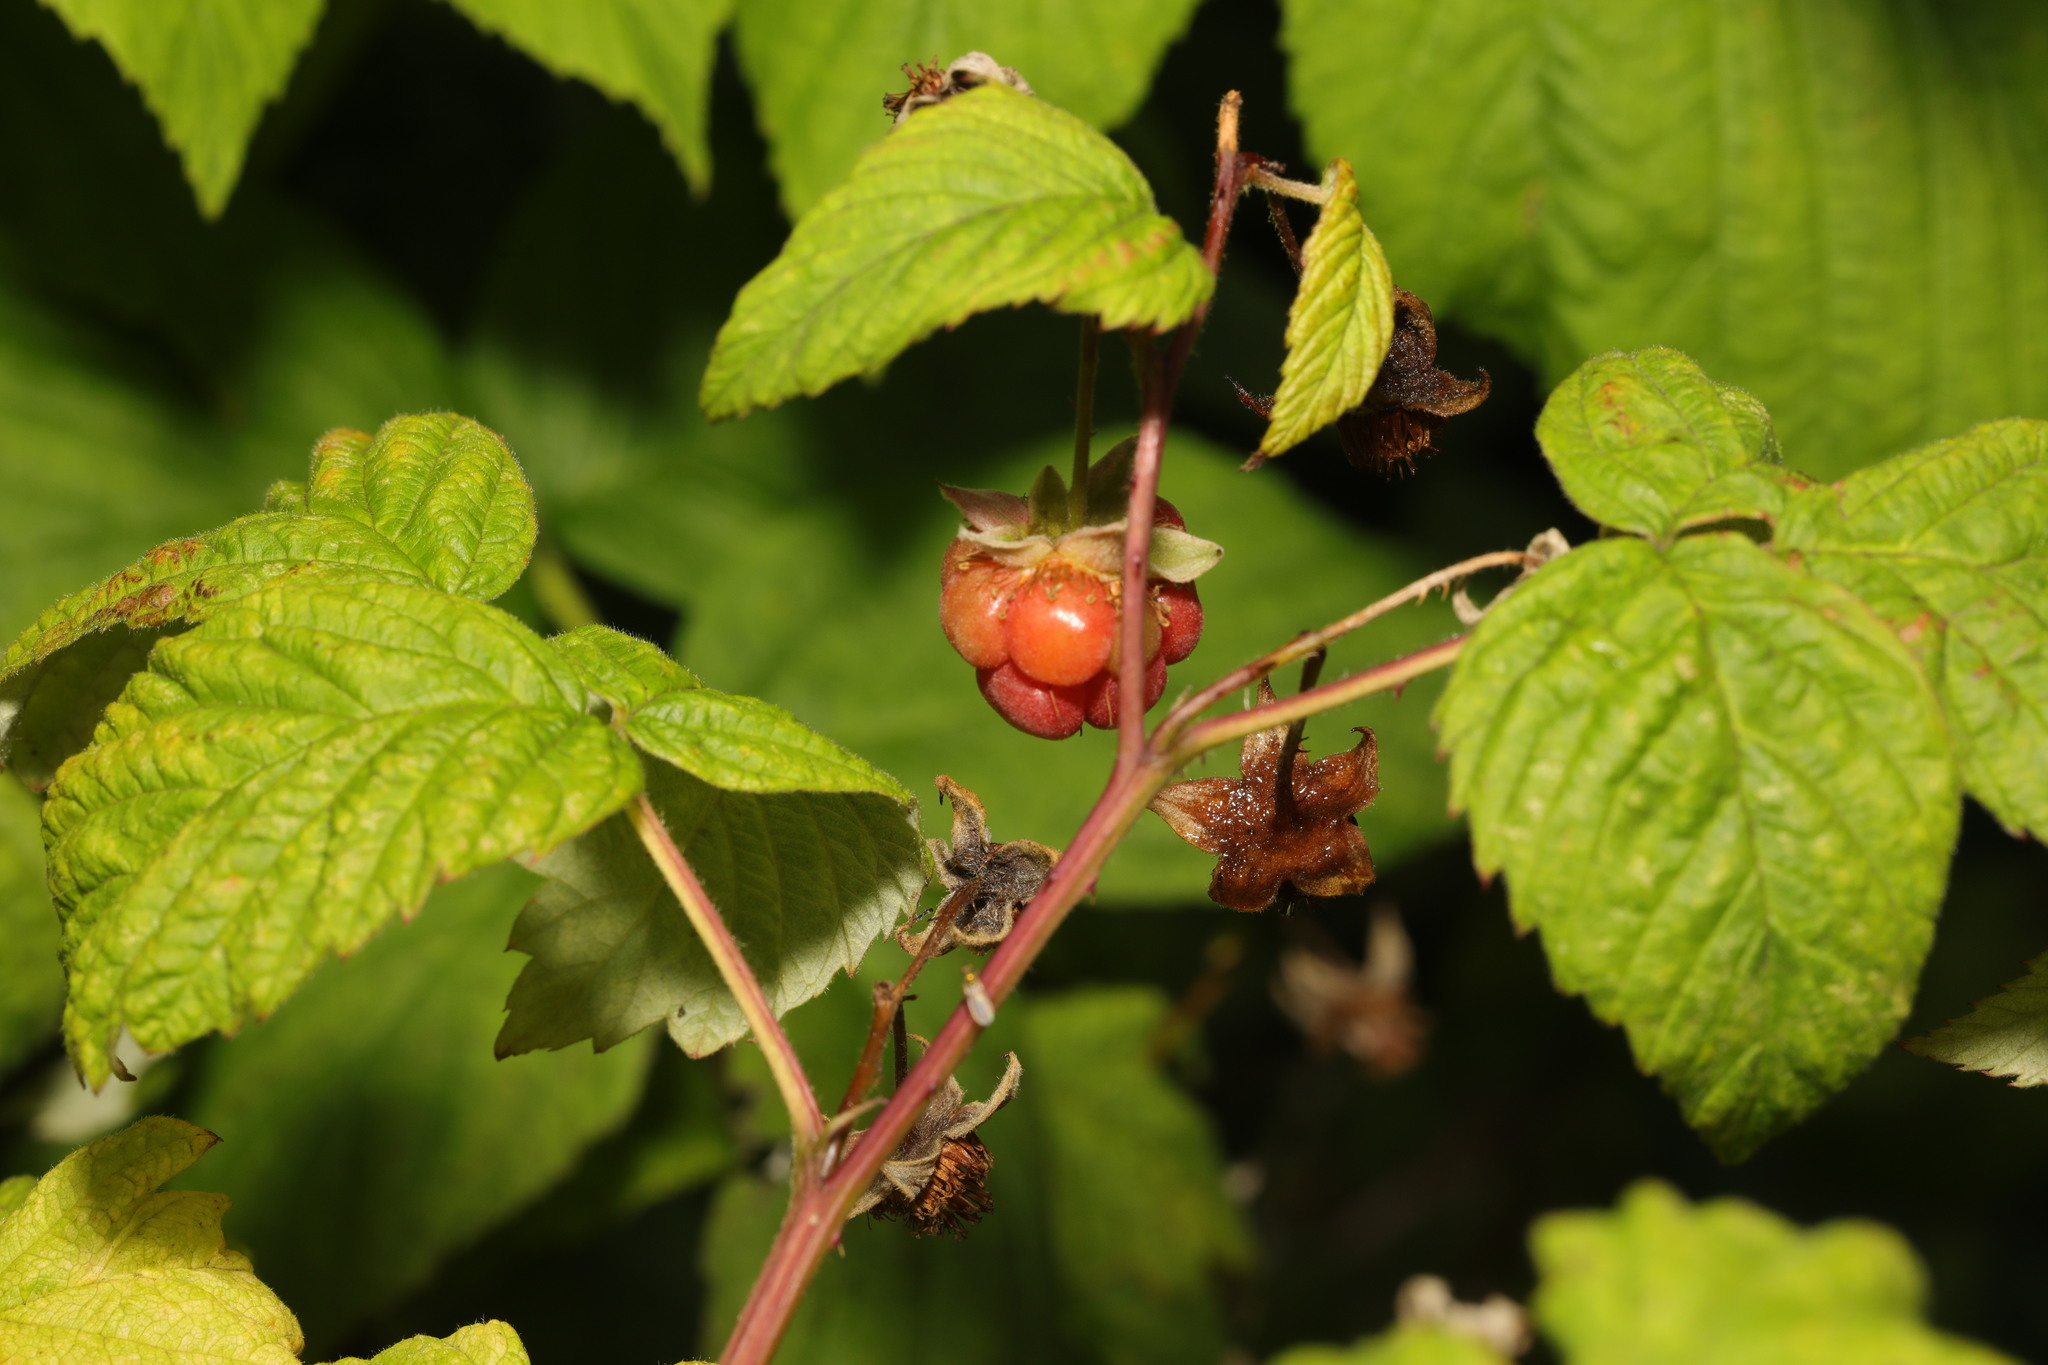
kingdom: Plantae
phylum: Tracheophyta
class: Magnoliopsida
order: Rosales
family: Rosaceae
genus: Rubus
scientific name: Rubus idaeus
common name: Raspberry
